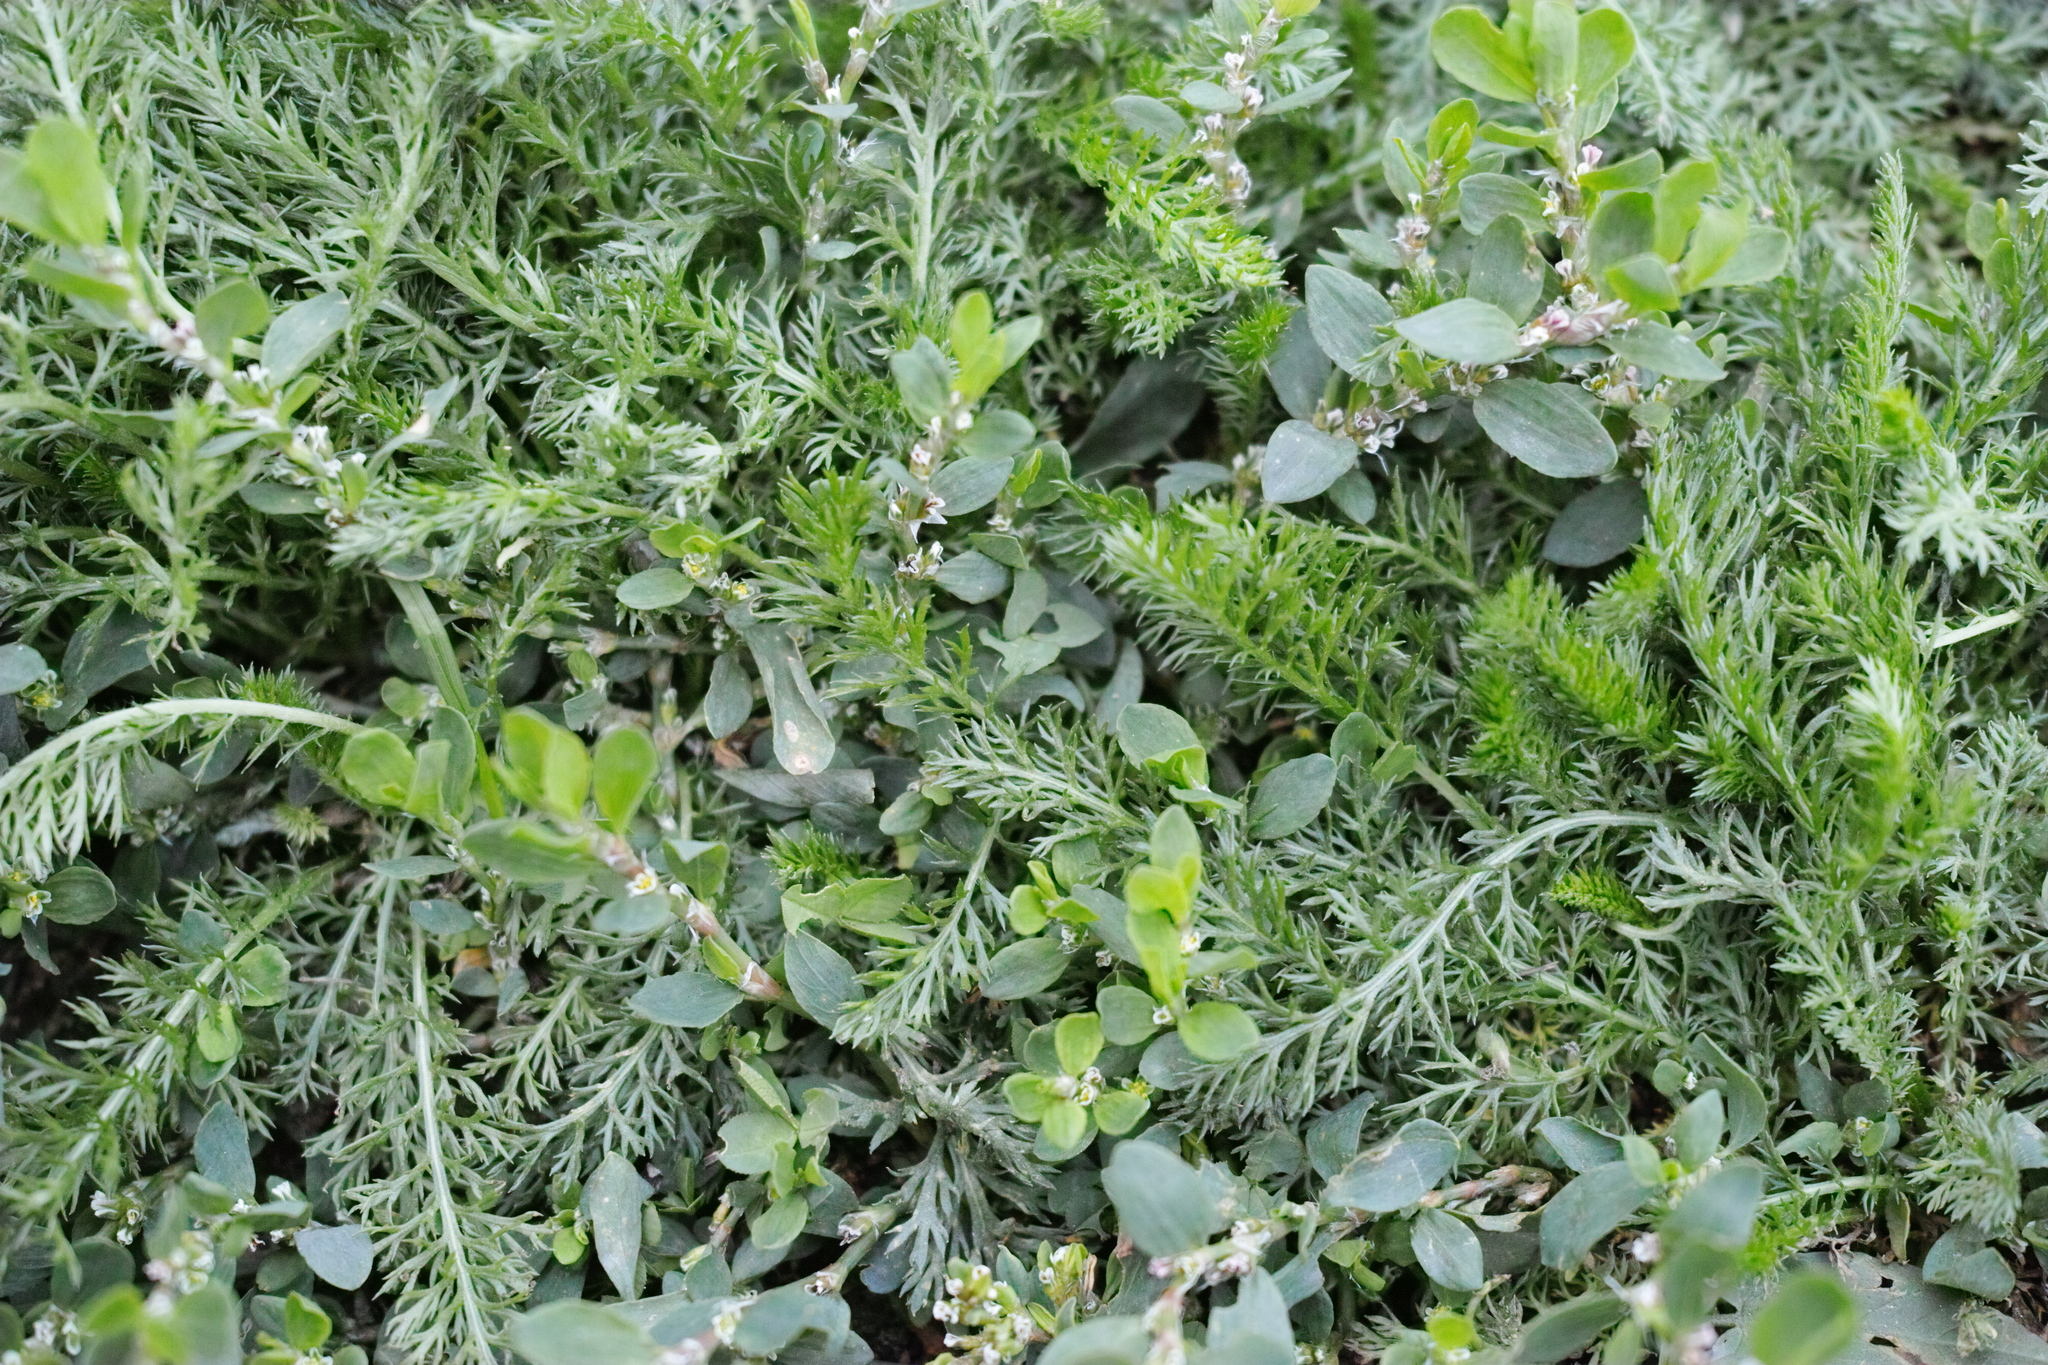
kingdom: Plantae
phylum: Tracheophyta
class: Magnoliopsida
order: Asterales
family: Asteraceae
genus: Achillea
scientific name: Achillea millefolium
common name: Yarrow
